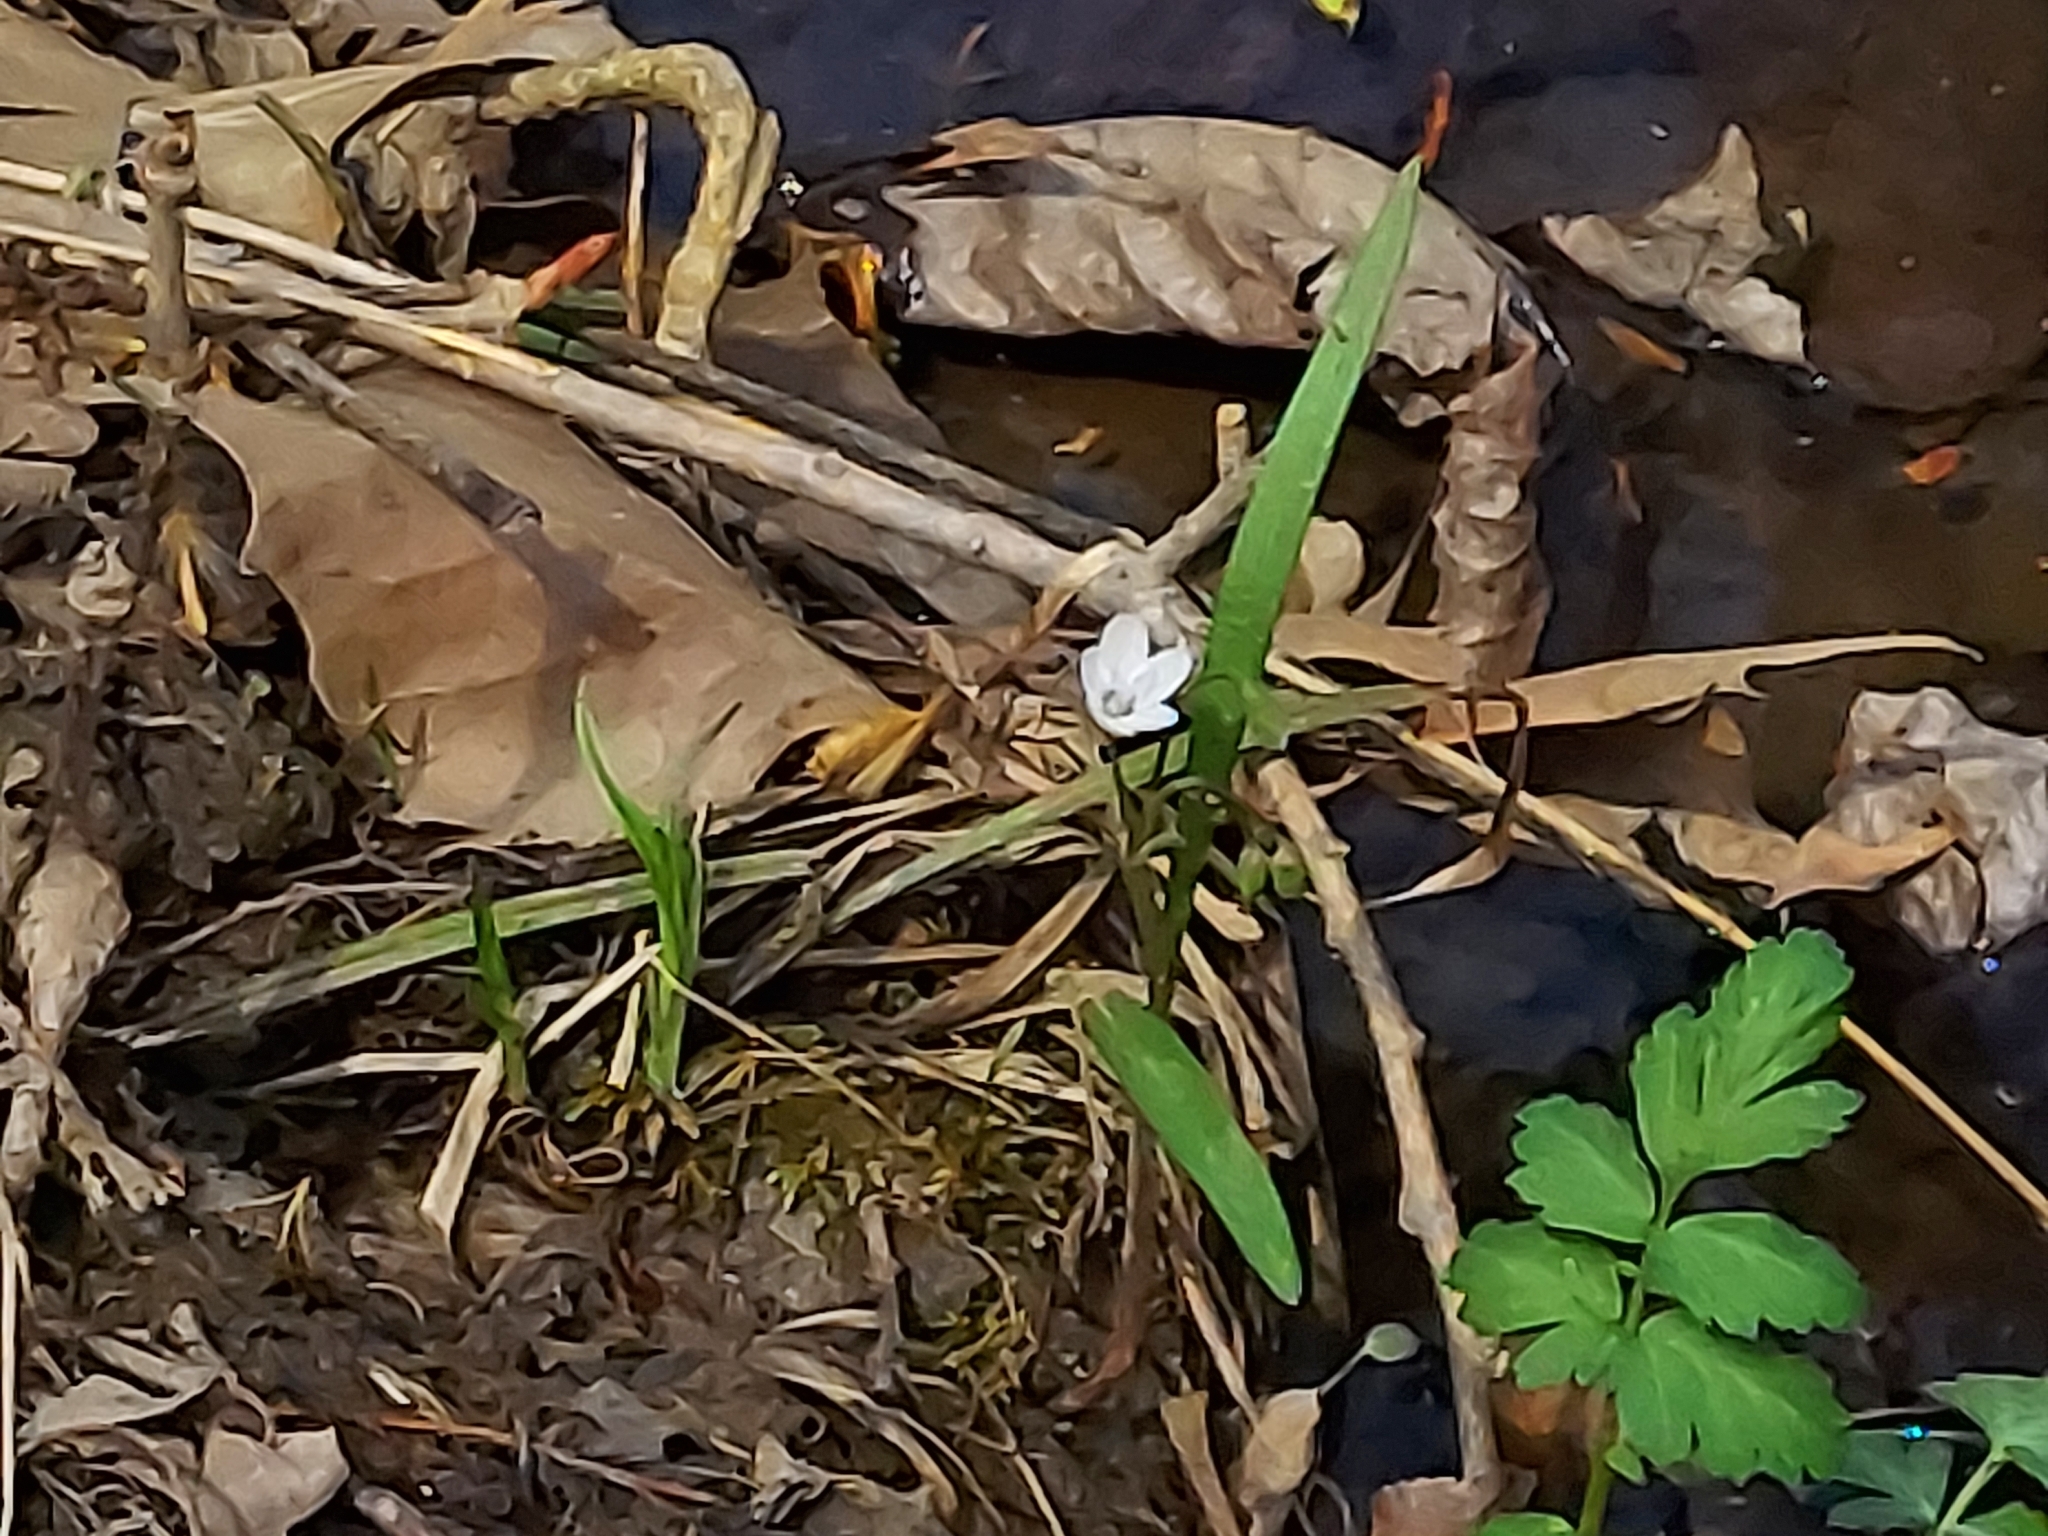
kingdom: Plantae
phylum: Tracheophyta
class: Magnoliopsida
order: Caryophyllales
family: Montiaceae
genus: Claytonia
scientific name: Claytonia virginica
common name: Virginia springbeauty
